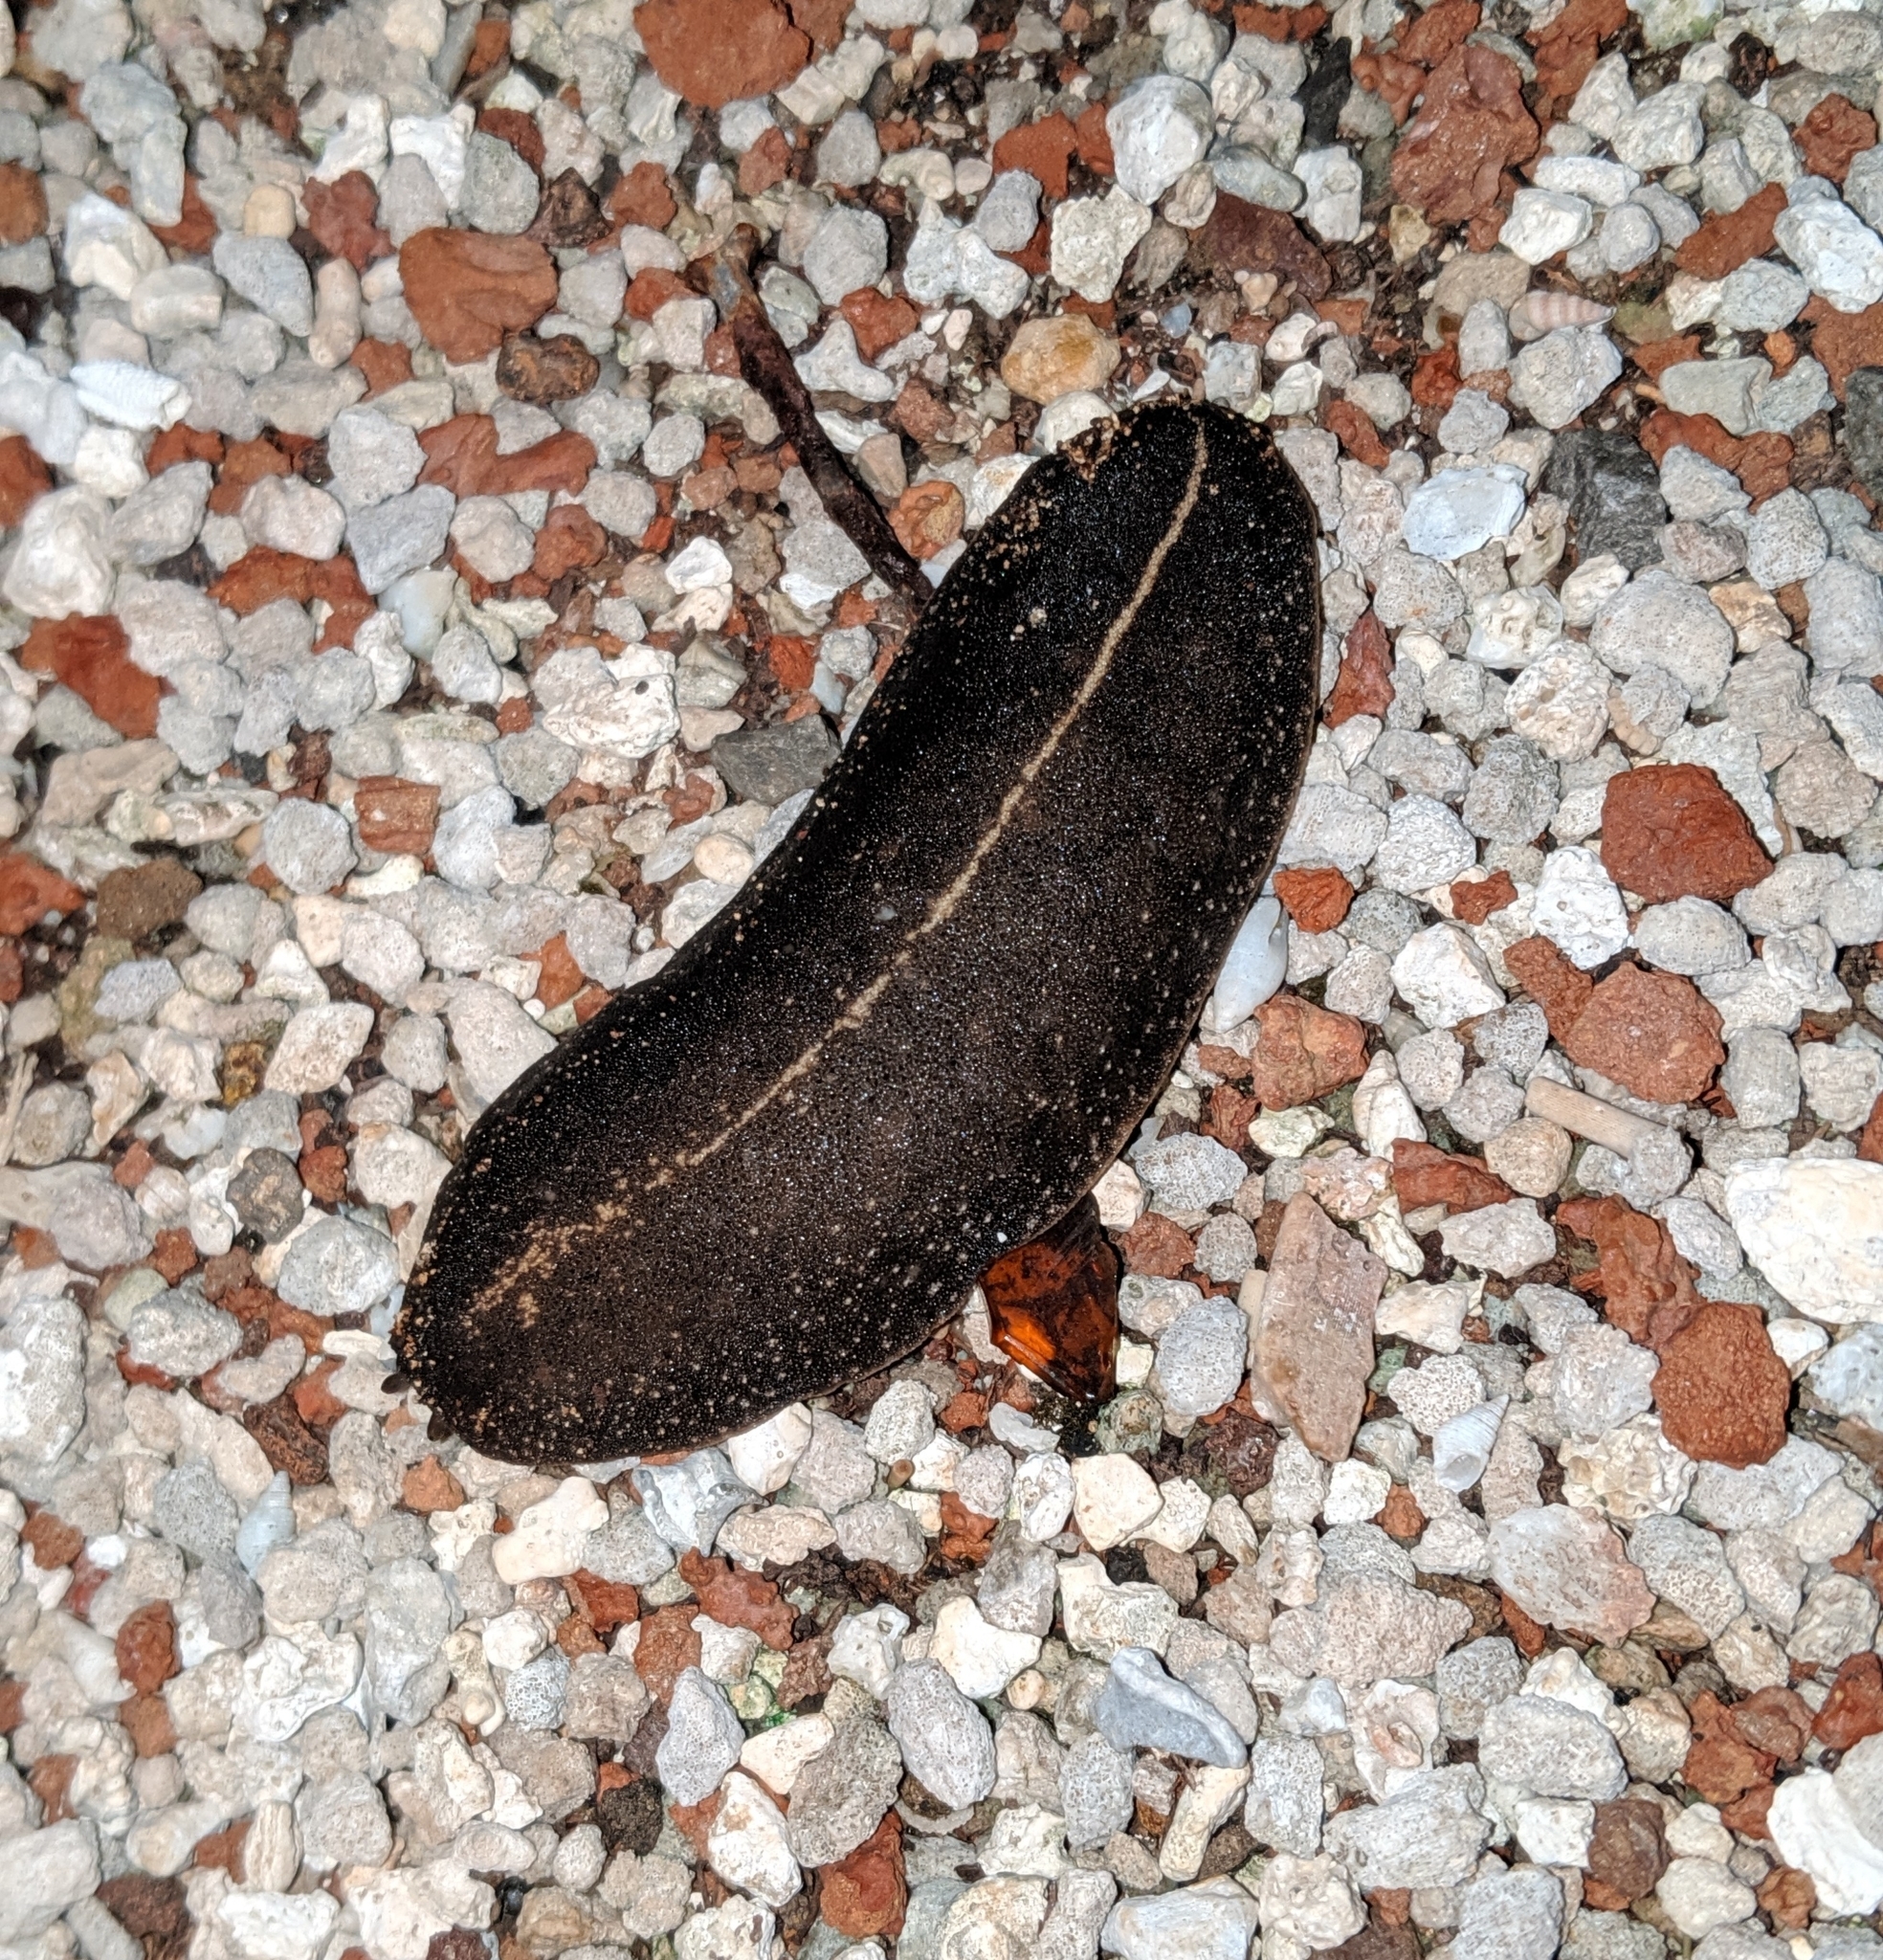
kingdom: Animalia
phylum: Mollusca
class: Gastropoda
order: Systellommatophora
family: Veronicellidae
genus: Laevicaulis
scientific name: Laevicaulis alte
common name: Tropical leatherleaf
